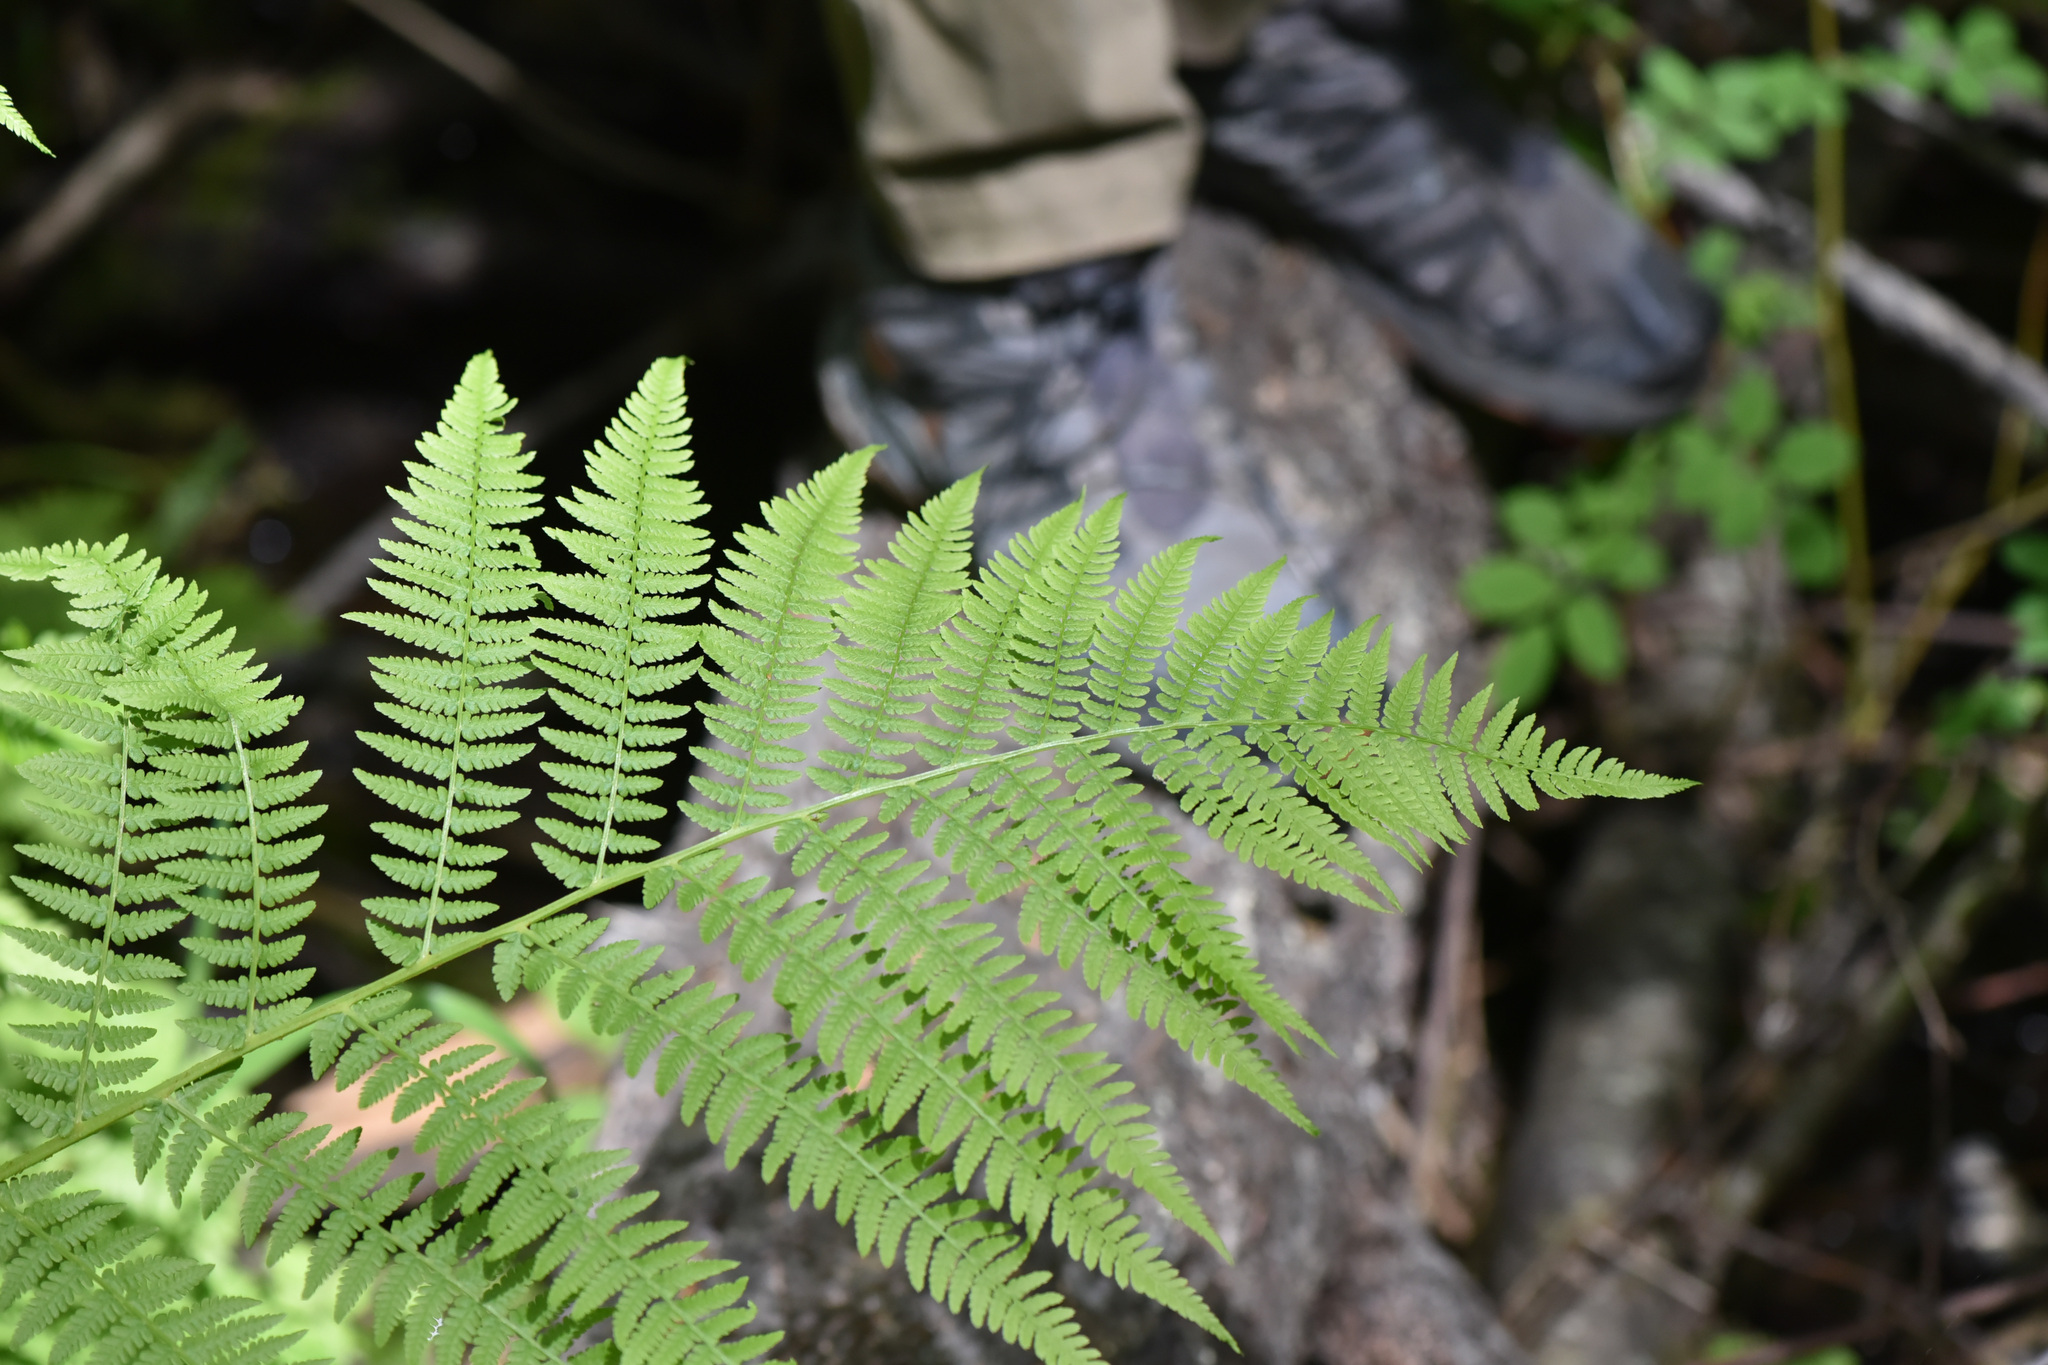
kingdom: Plantae
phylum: Tracheophyta
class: Polypodiopsida
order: Polypodiales
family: Athyriaceae
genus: Athyrium
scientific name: Athyrium filix-femina
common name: Lady fern
